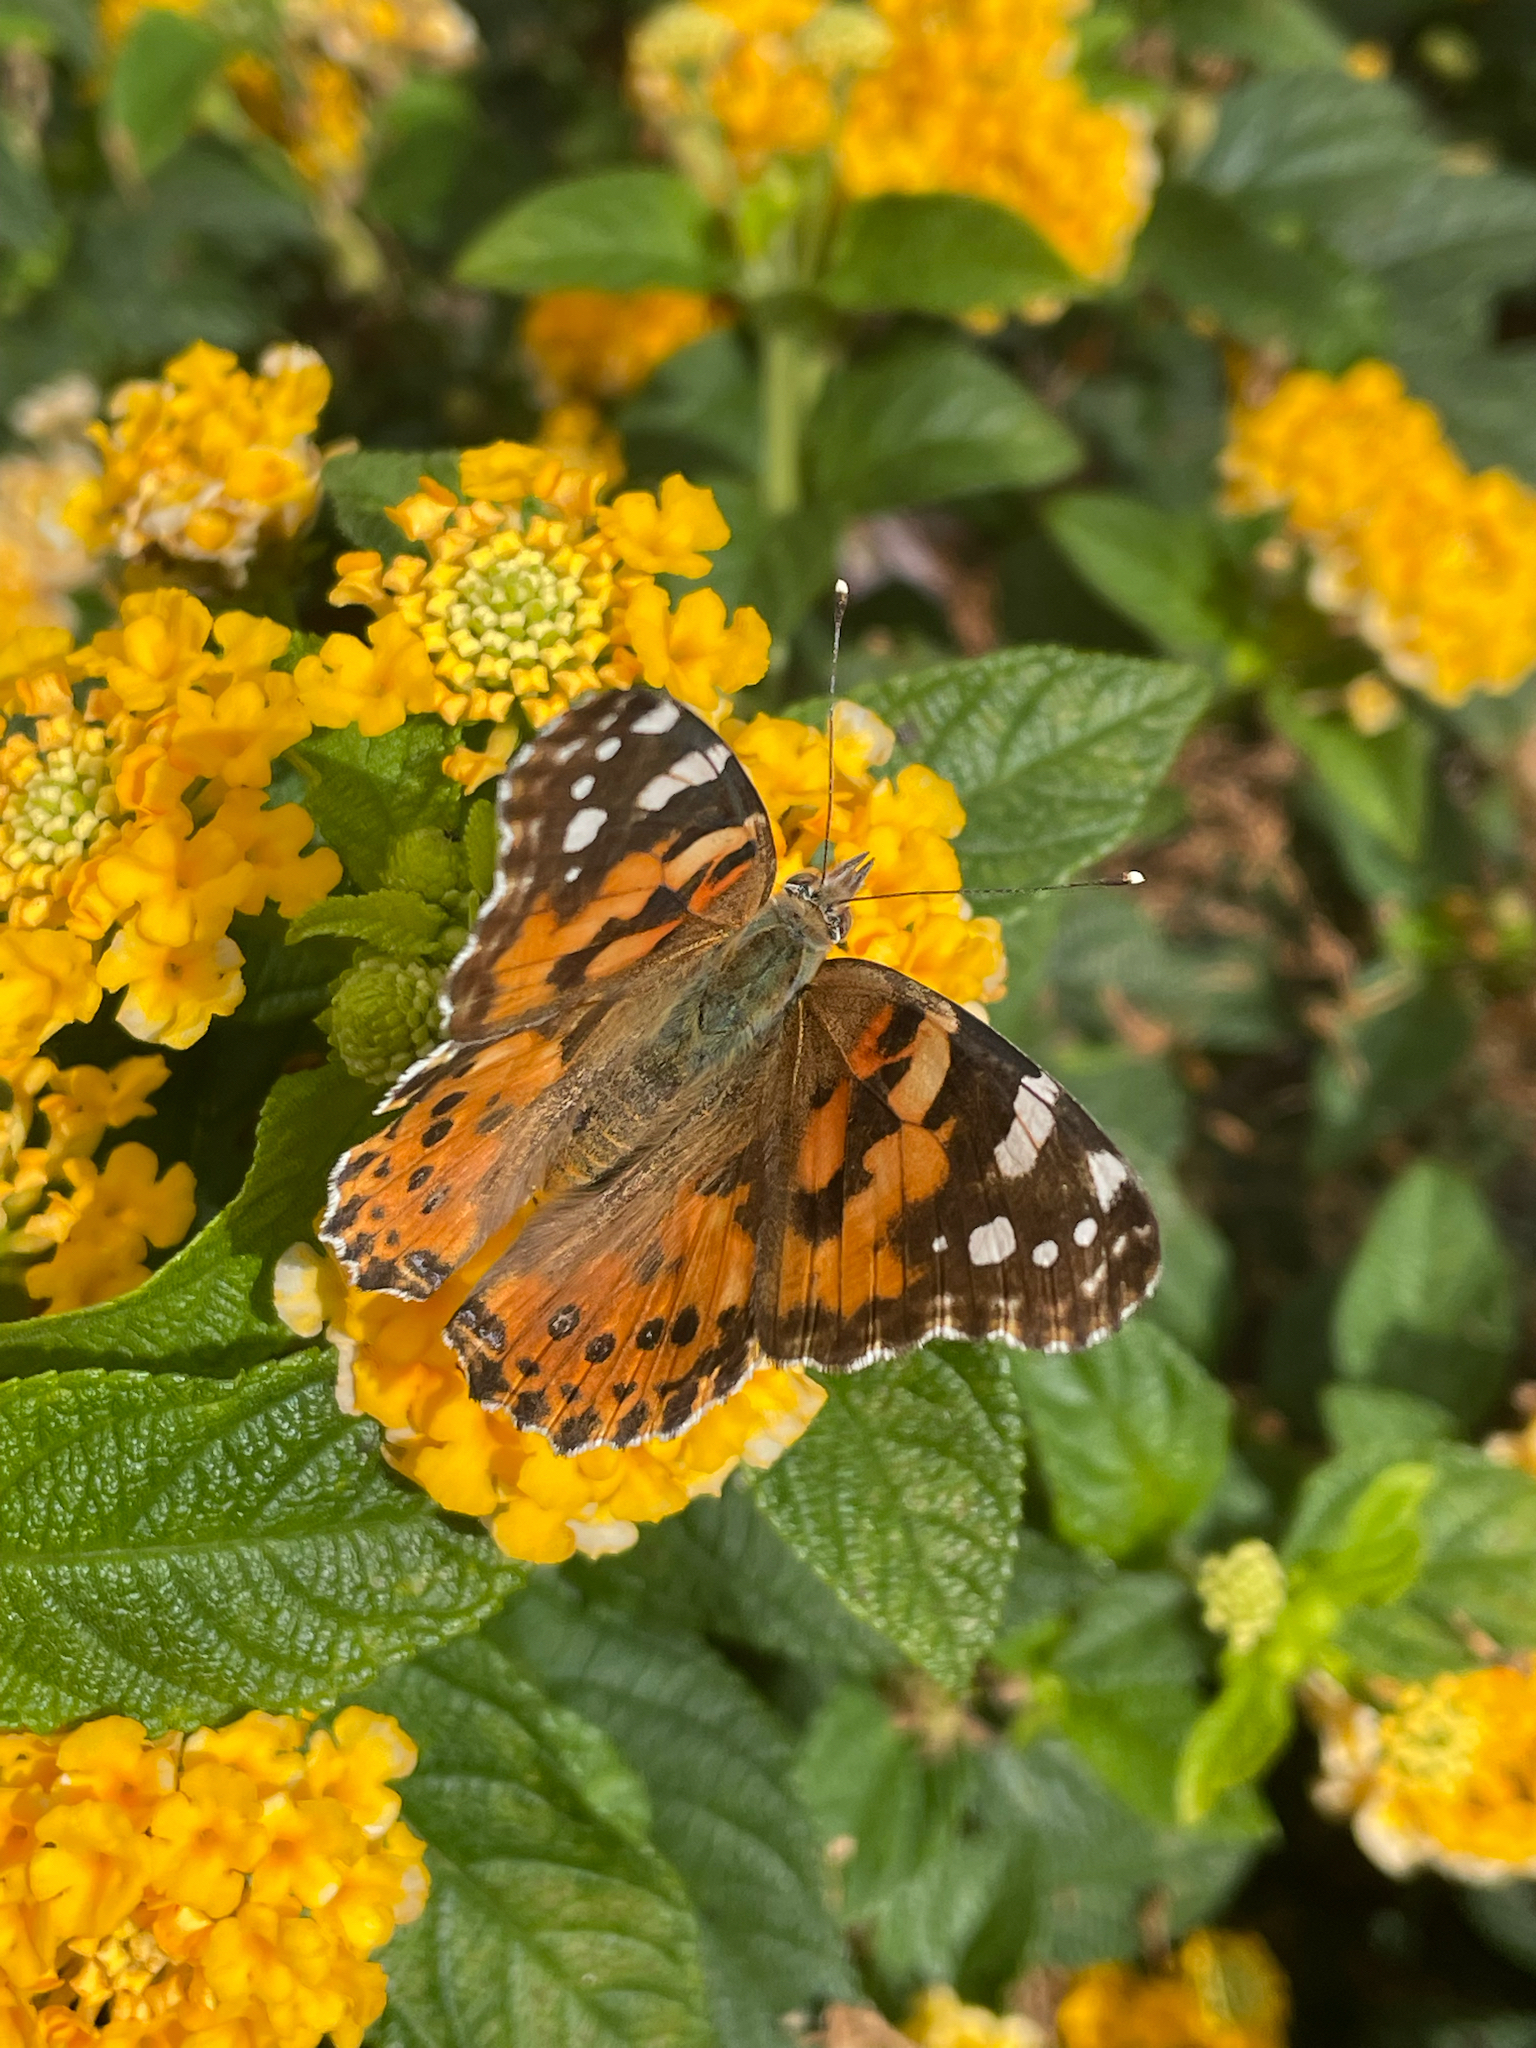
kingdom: Animalia
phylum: Arthropoda
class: Insecta
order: Lepidoptera
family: Nymphalidae
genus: Vanessa
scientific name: Vanessa cardui
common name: Painted lady
